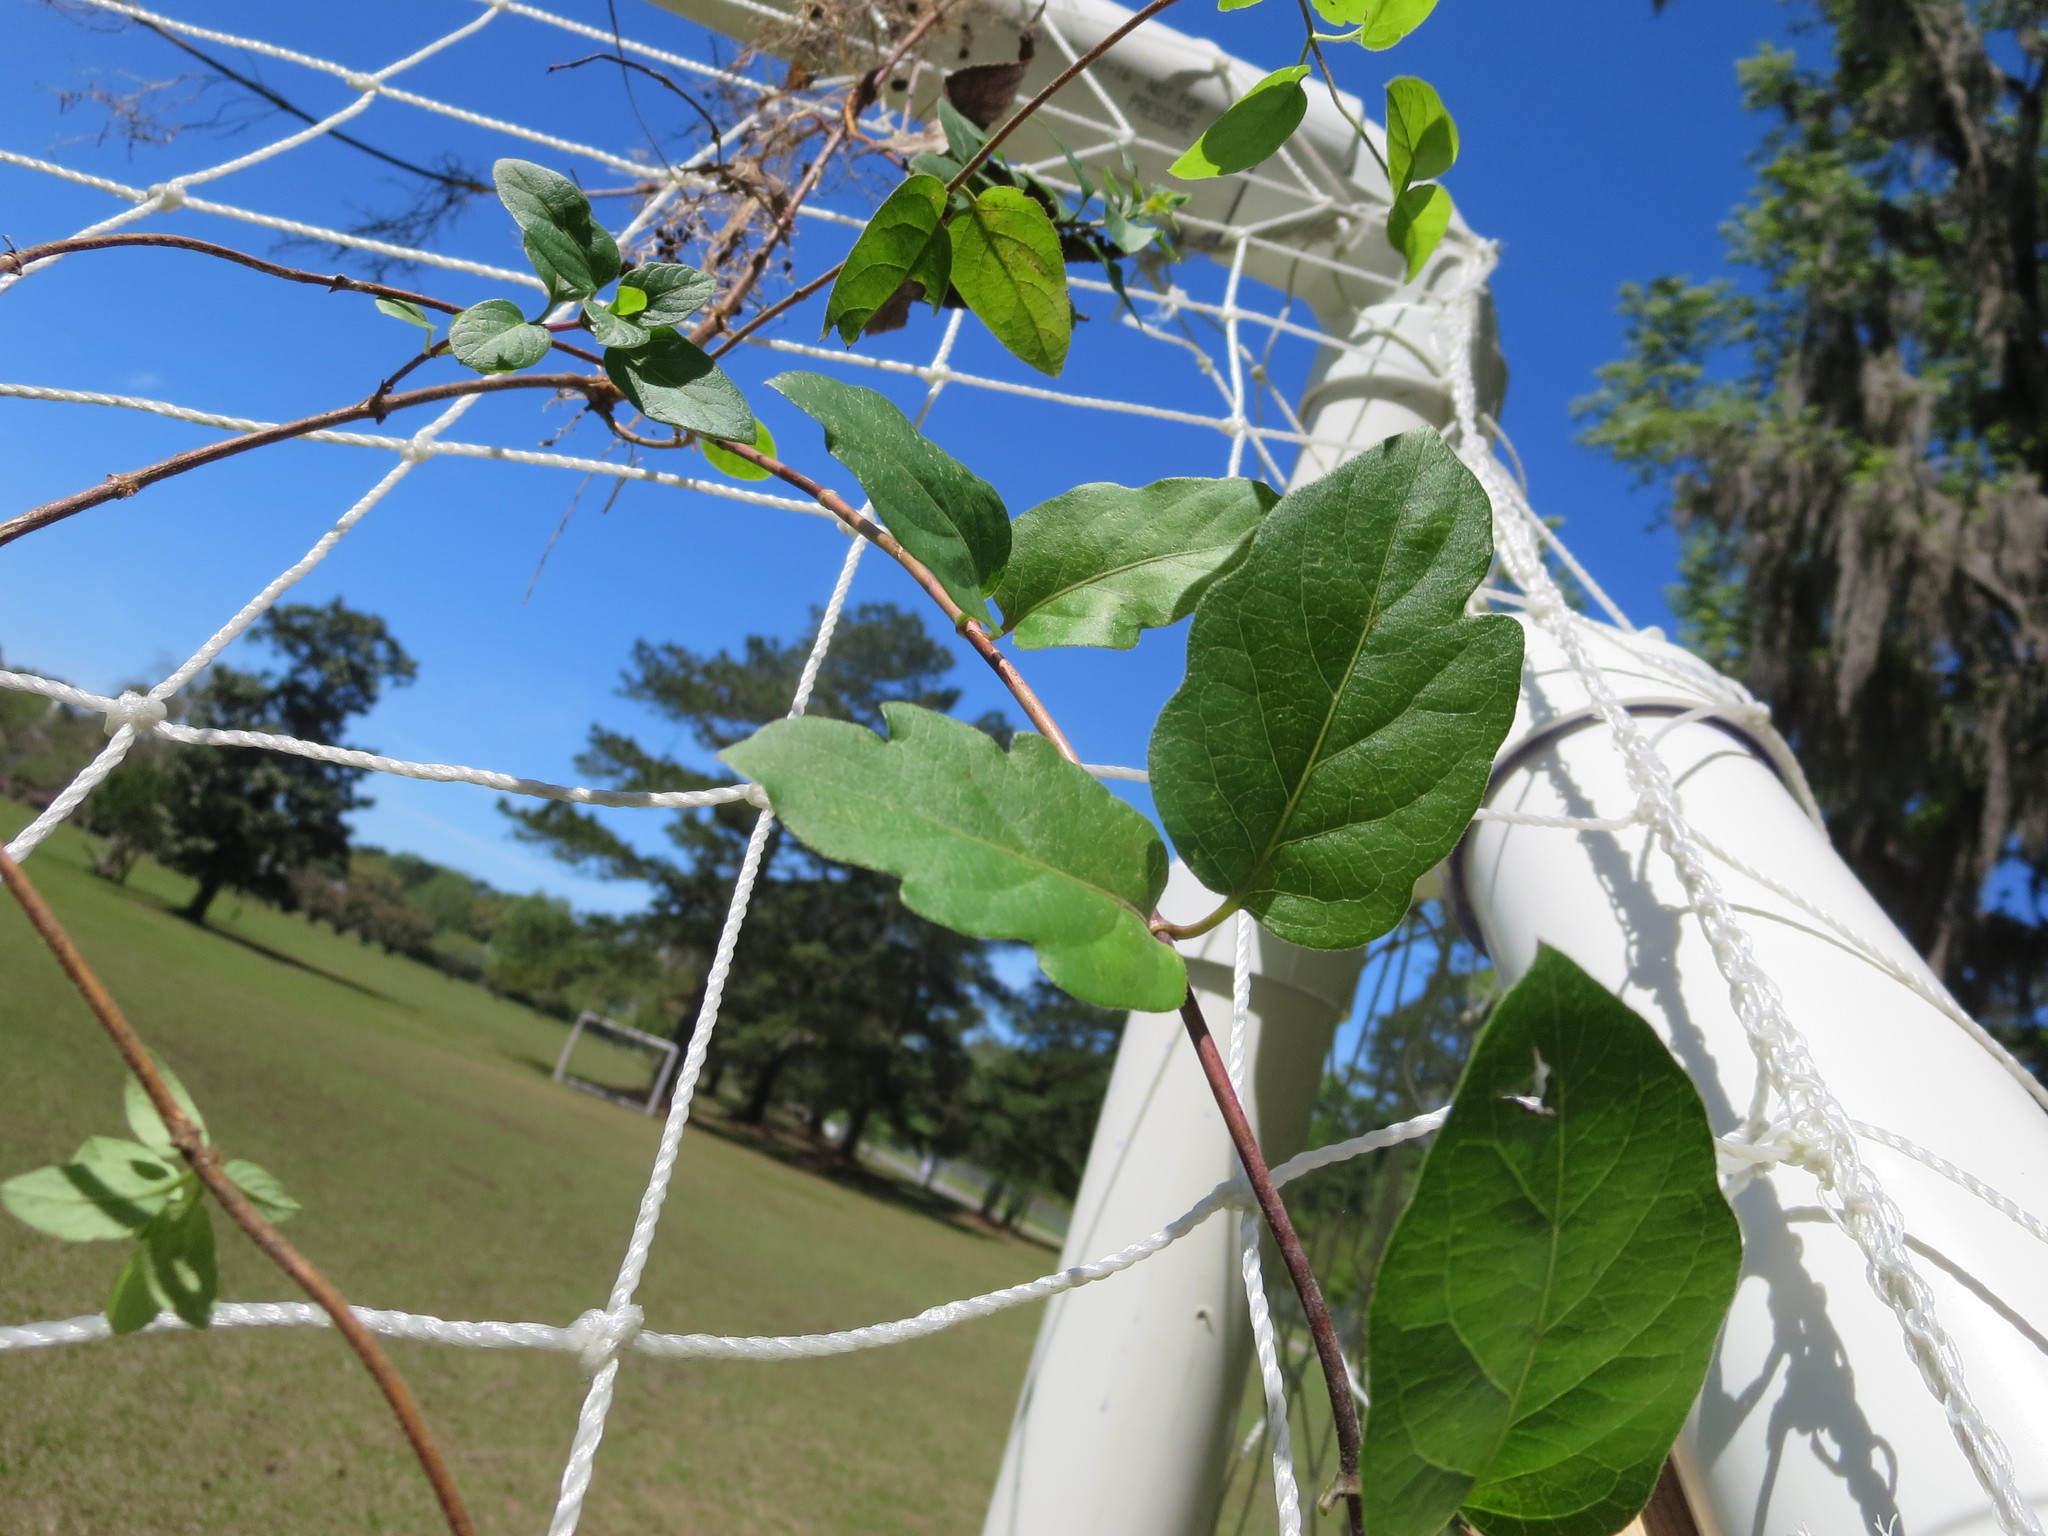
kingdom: Plantae
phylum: Tracheophyta
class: Magnoliopsida
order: Dipsacales
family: Caprifoliaceae
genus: Lonicera
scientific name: Lonicera japonica
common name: Japanese honeysuckle
